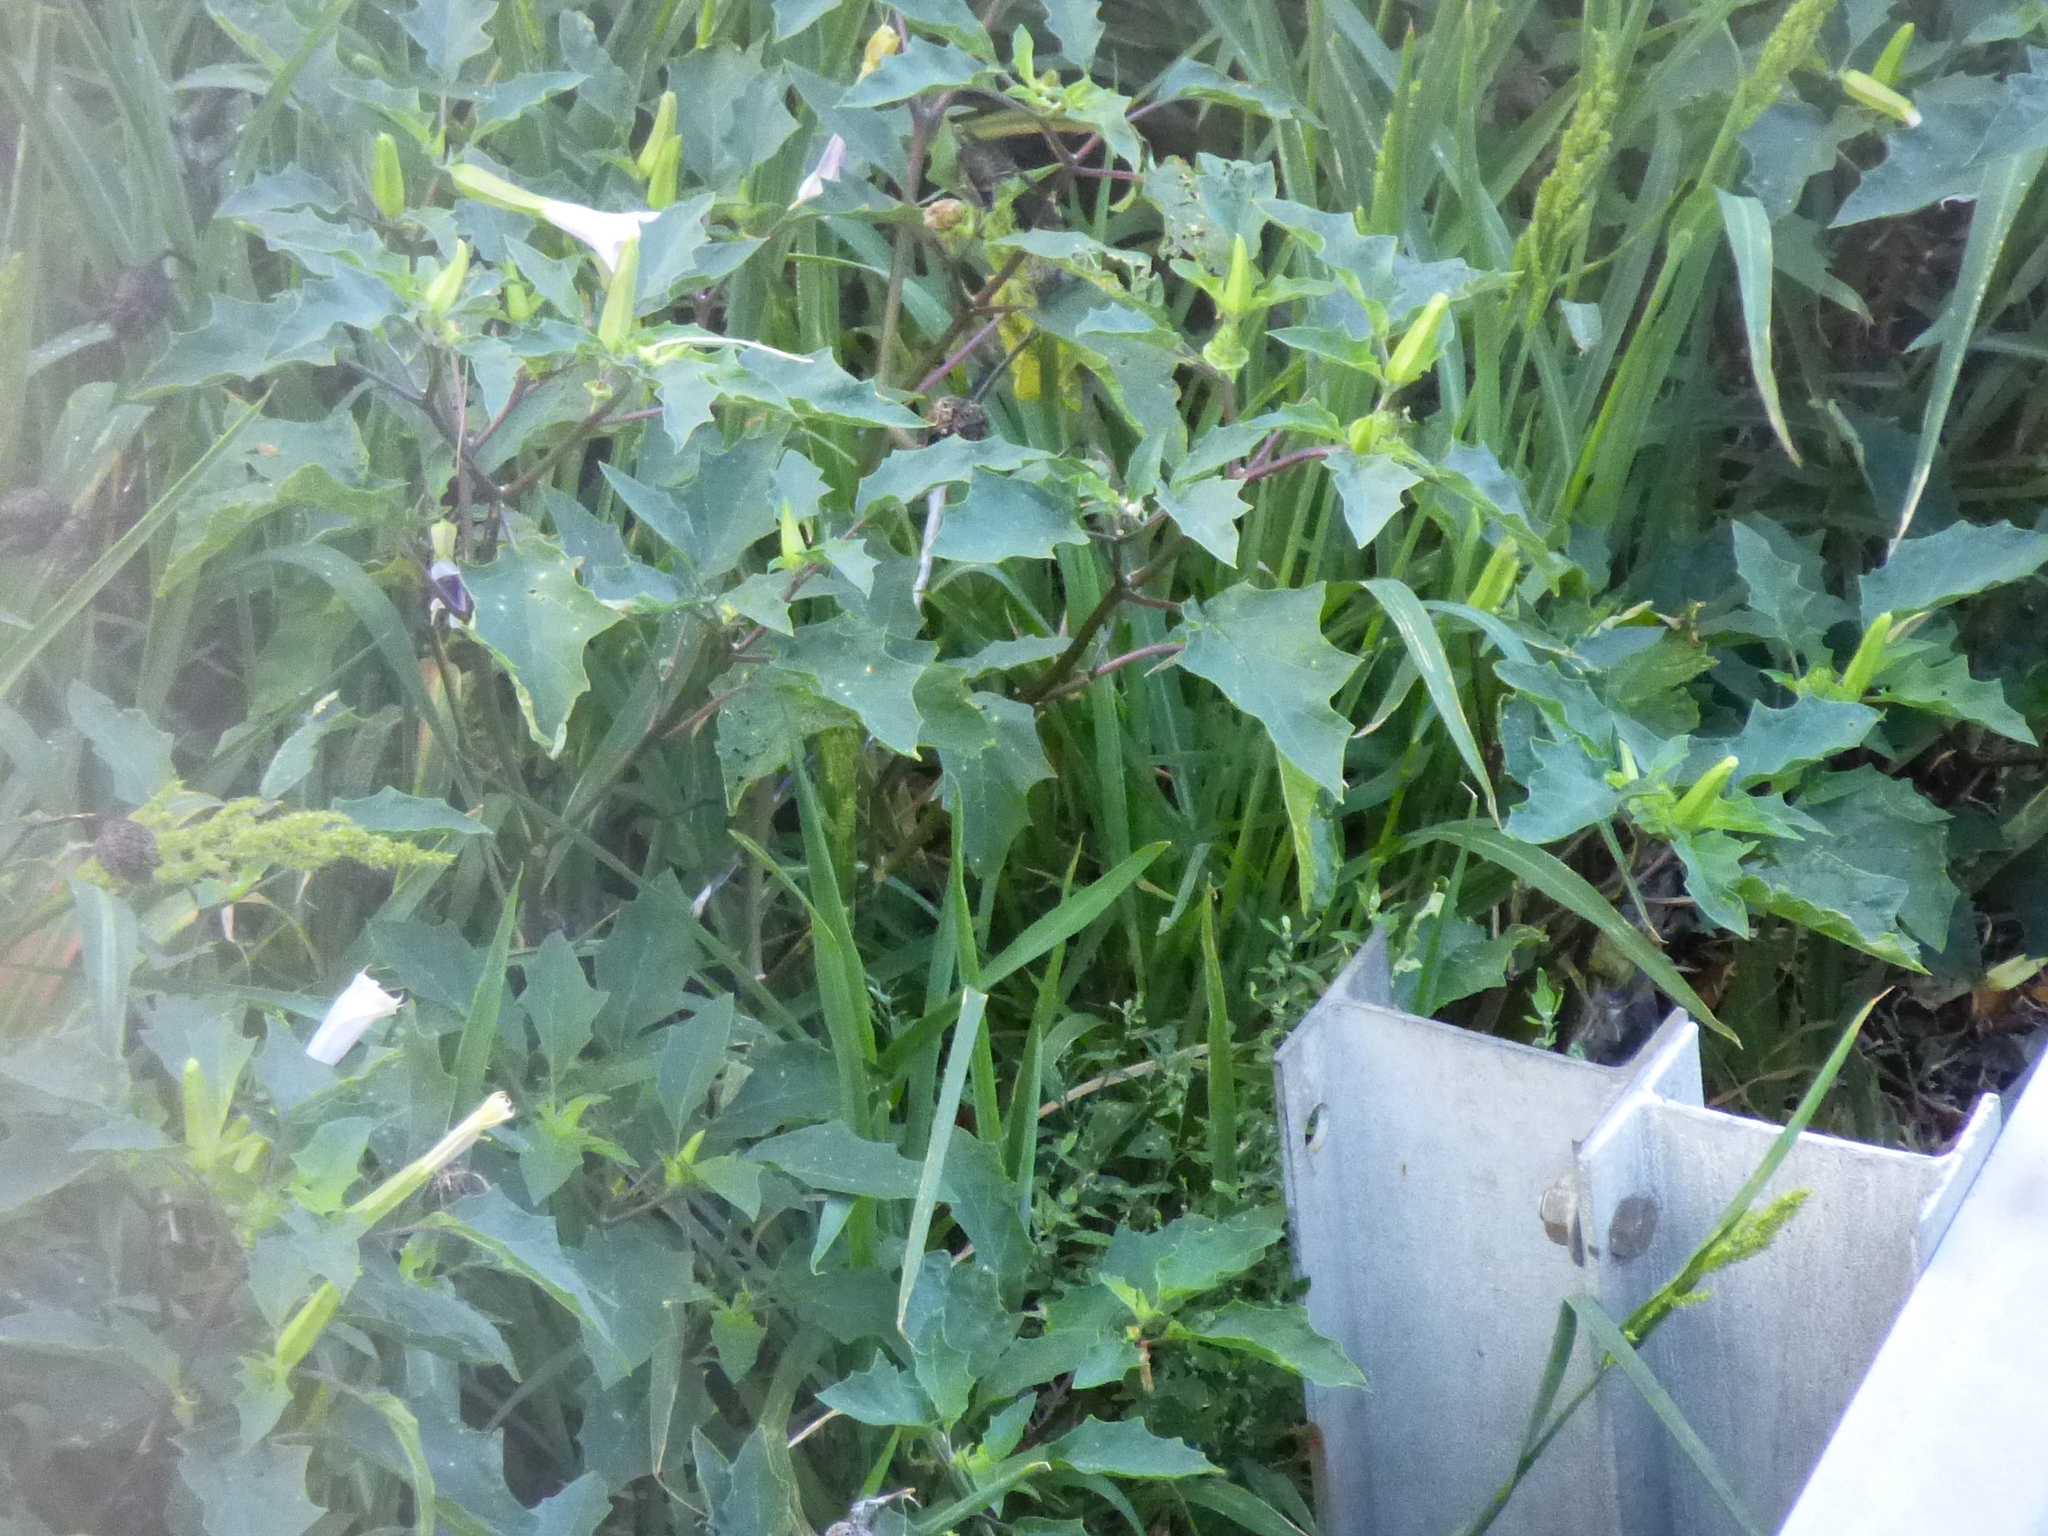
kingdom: Plantae
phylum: Tracheophyta
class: Magnoliopsida
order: Solanales
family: Solanaceae
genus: Datura
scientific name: Datura stramonium
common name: Thorn-apple
